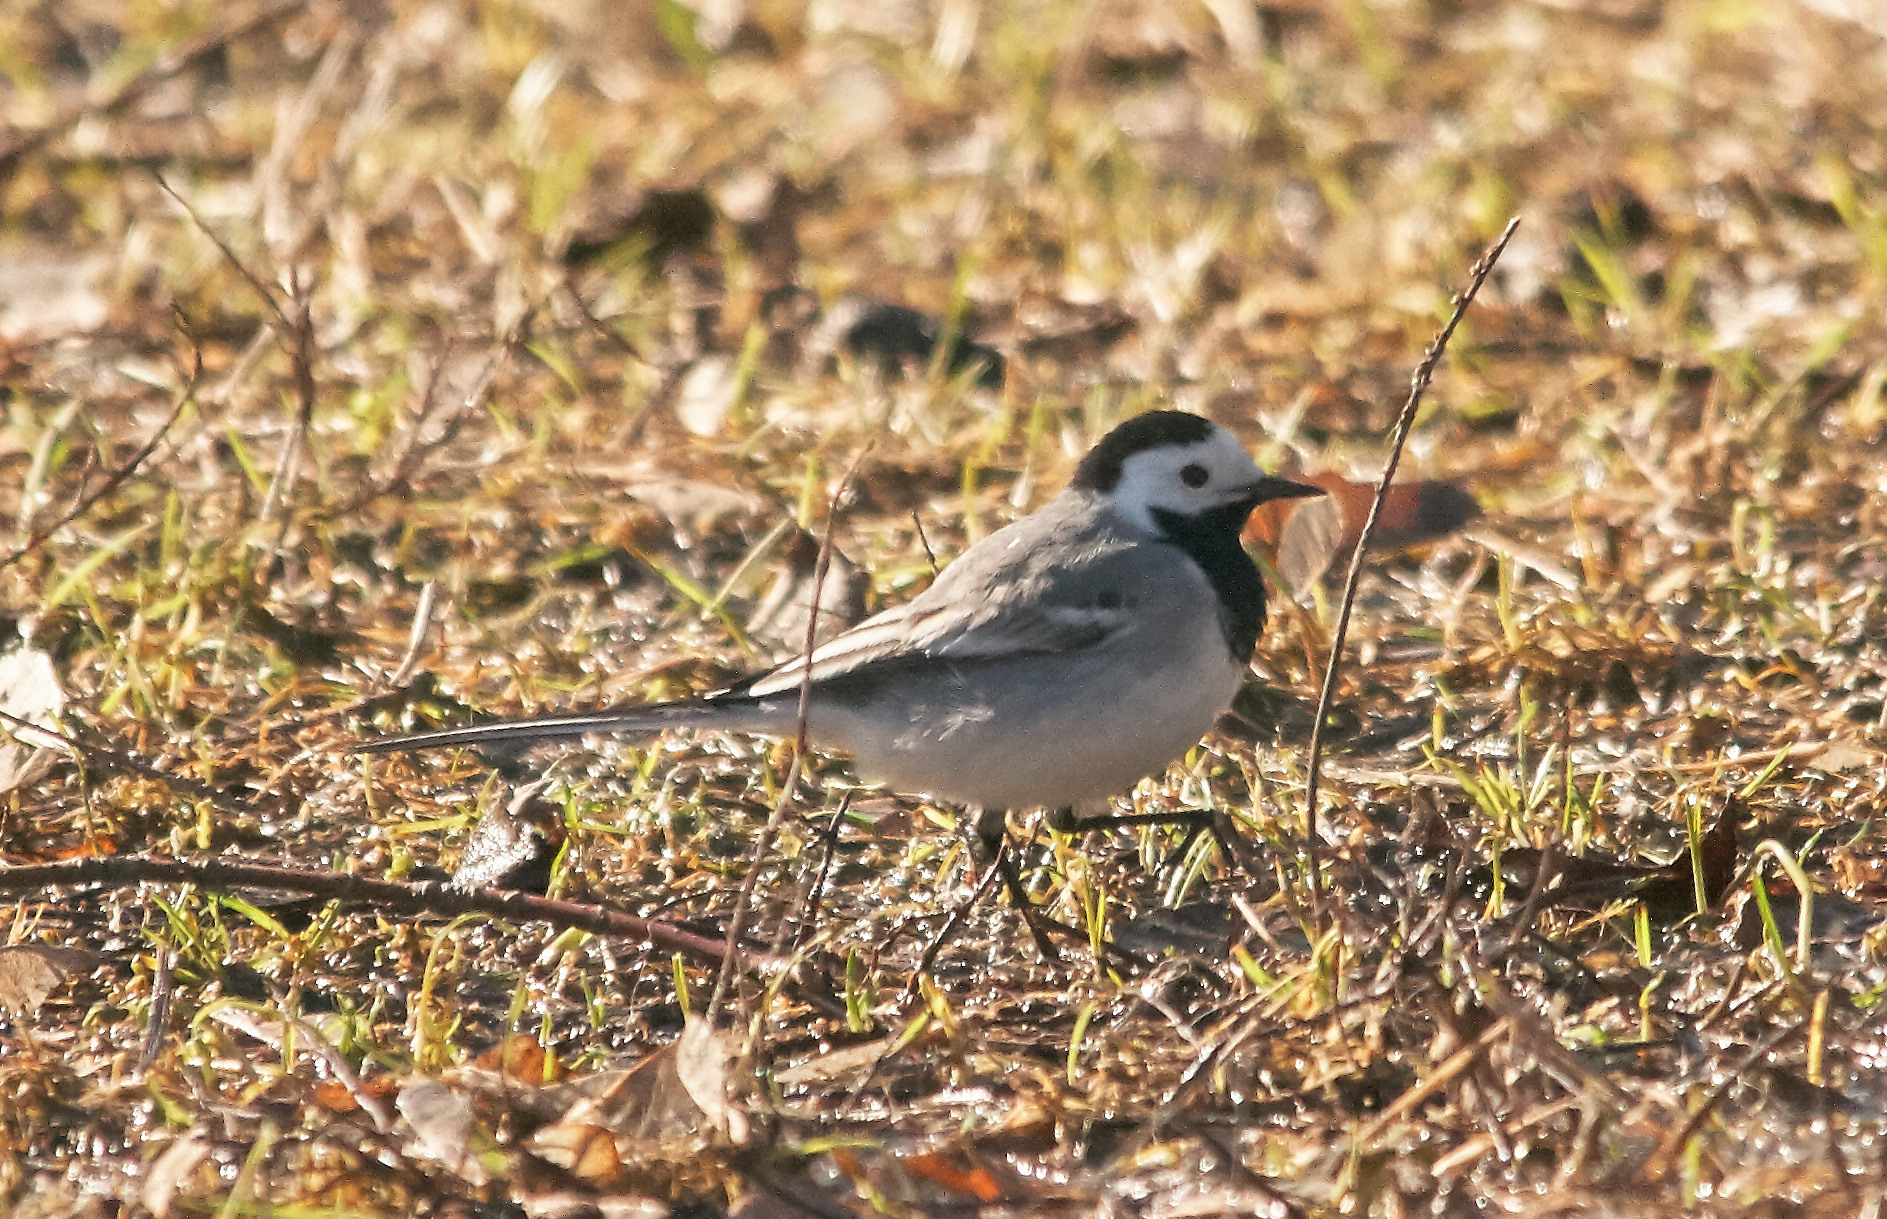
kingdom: Animalia
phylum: Chordata
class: Aves
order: Passeriformes
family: Motacillidae
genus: Motacilla
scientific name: Motacilla alba
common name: White wagtail
